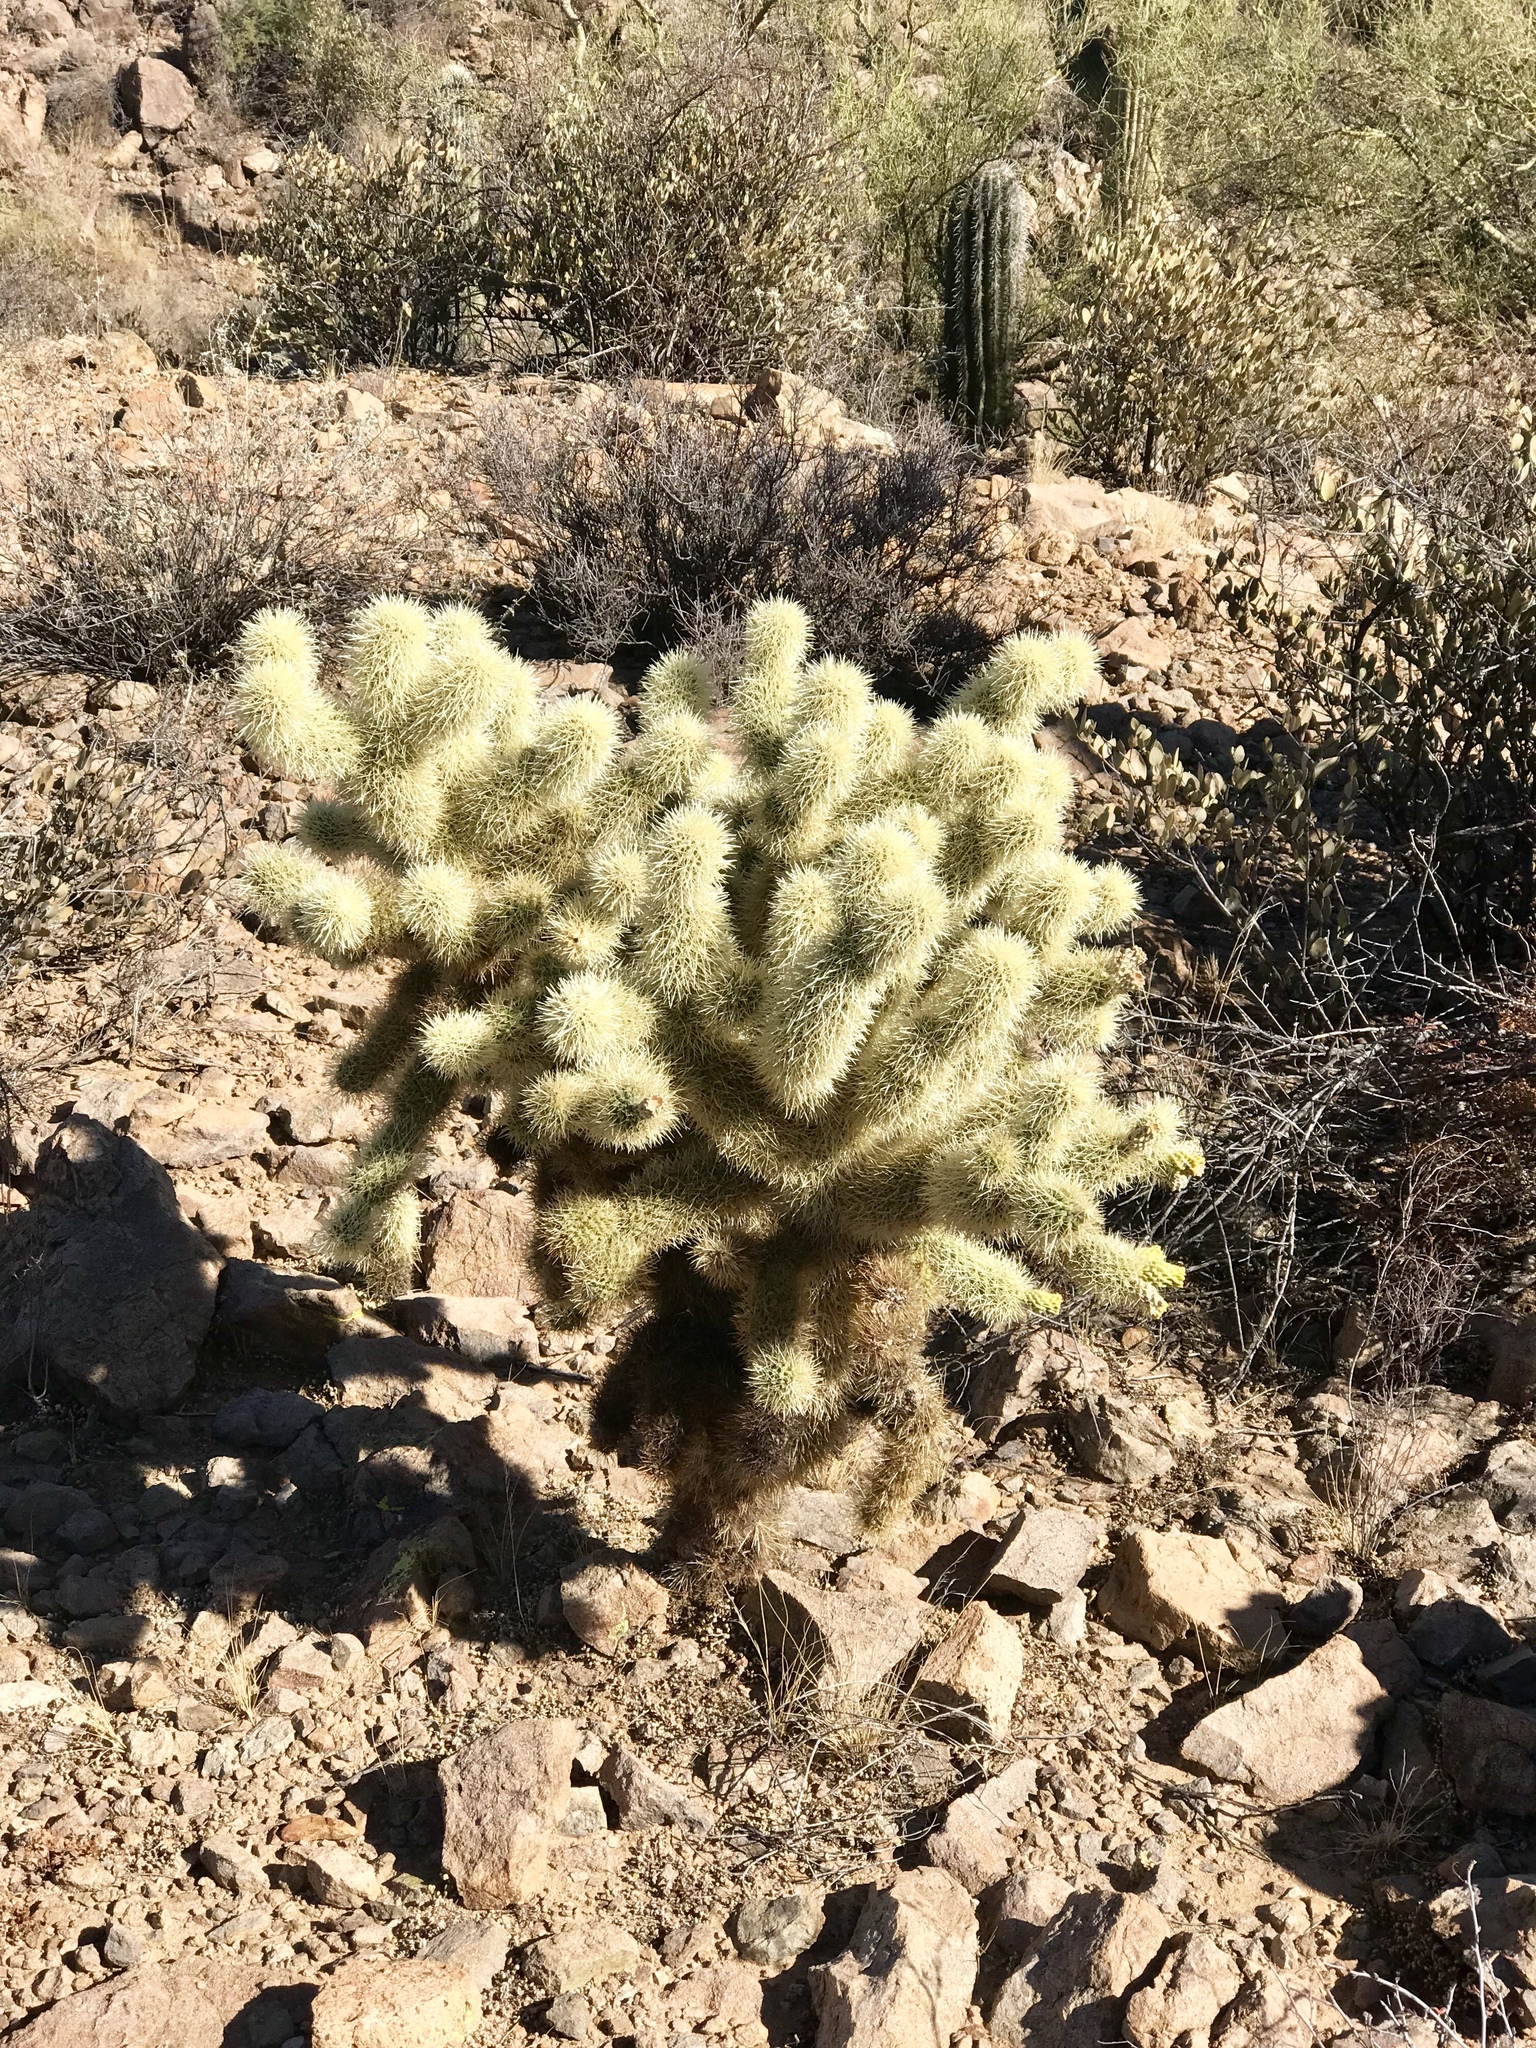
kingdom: Plantae
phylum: Tracheophyta
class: Magnoliopsida
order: Caryophyllales
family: Cactaceae
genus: Cylindropuntia
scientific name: Cylindropuntia fosbergii
